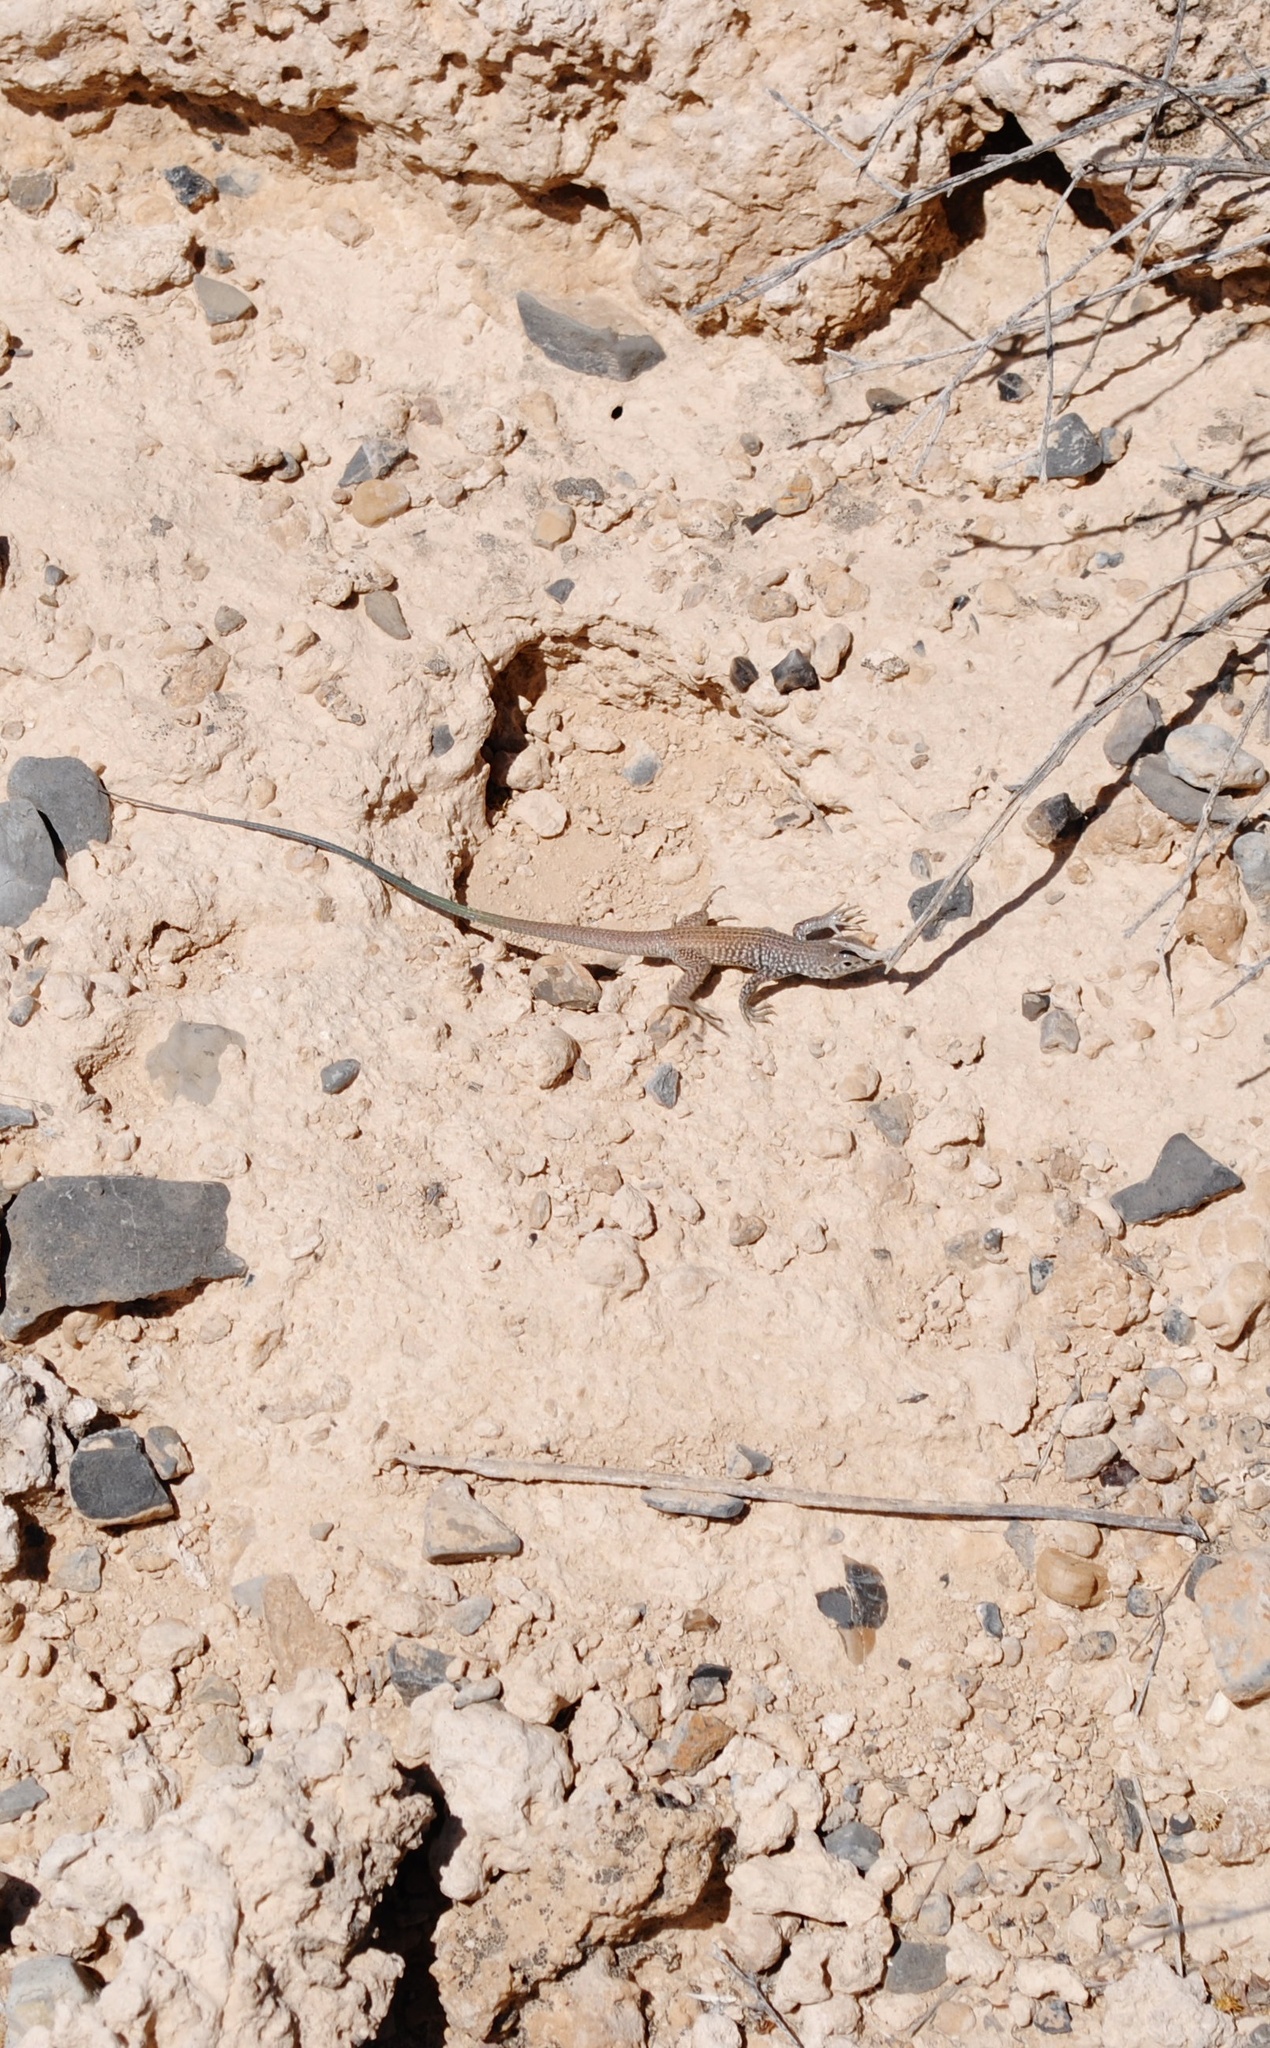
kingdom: Animalia
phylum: Chordata
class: Squamata
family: Teiidae
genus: Aspidoscelis
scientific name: Aspidoscelis tigris
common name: Tiger whiptail
